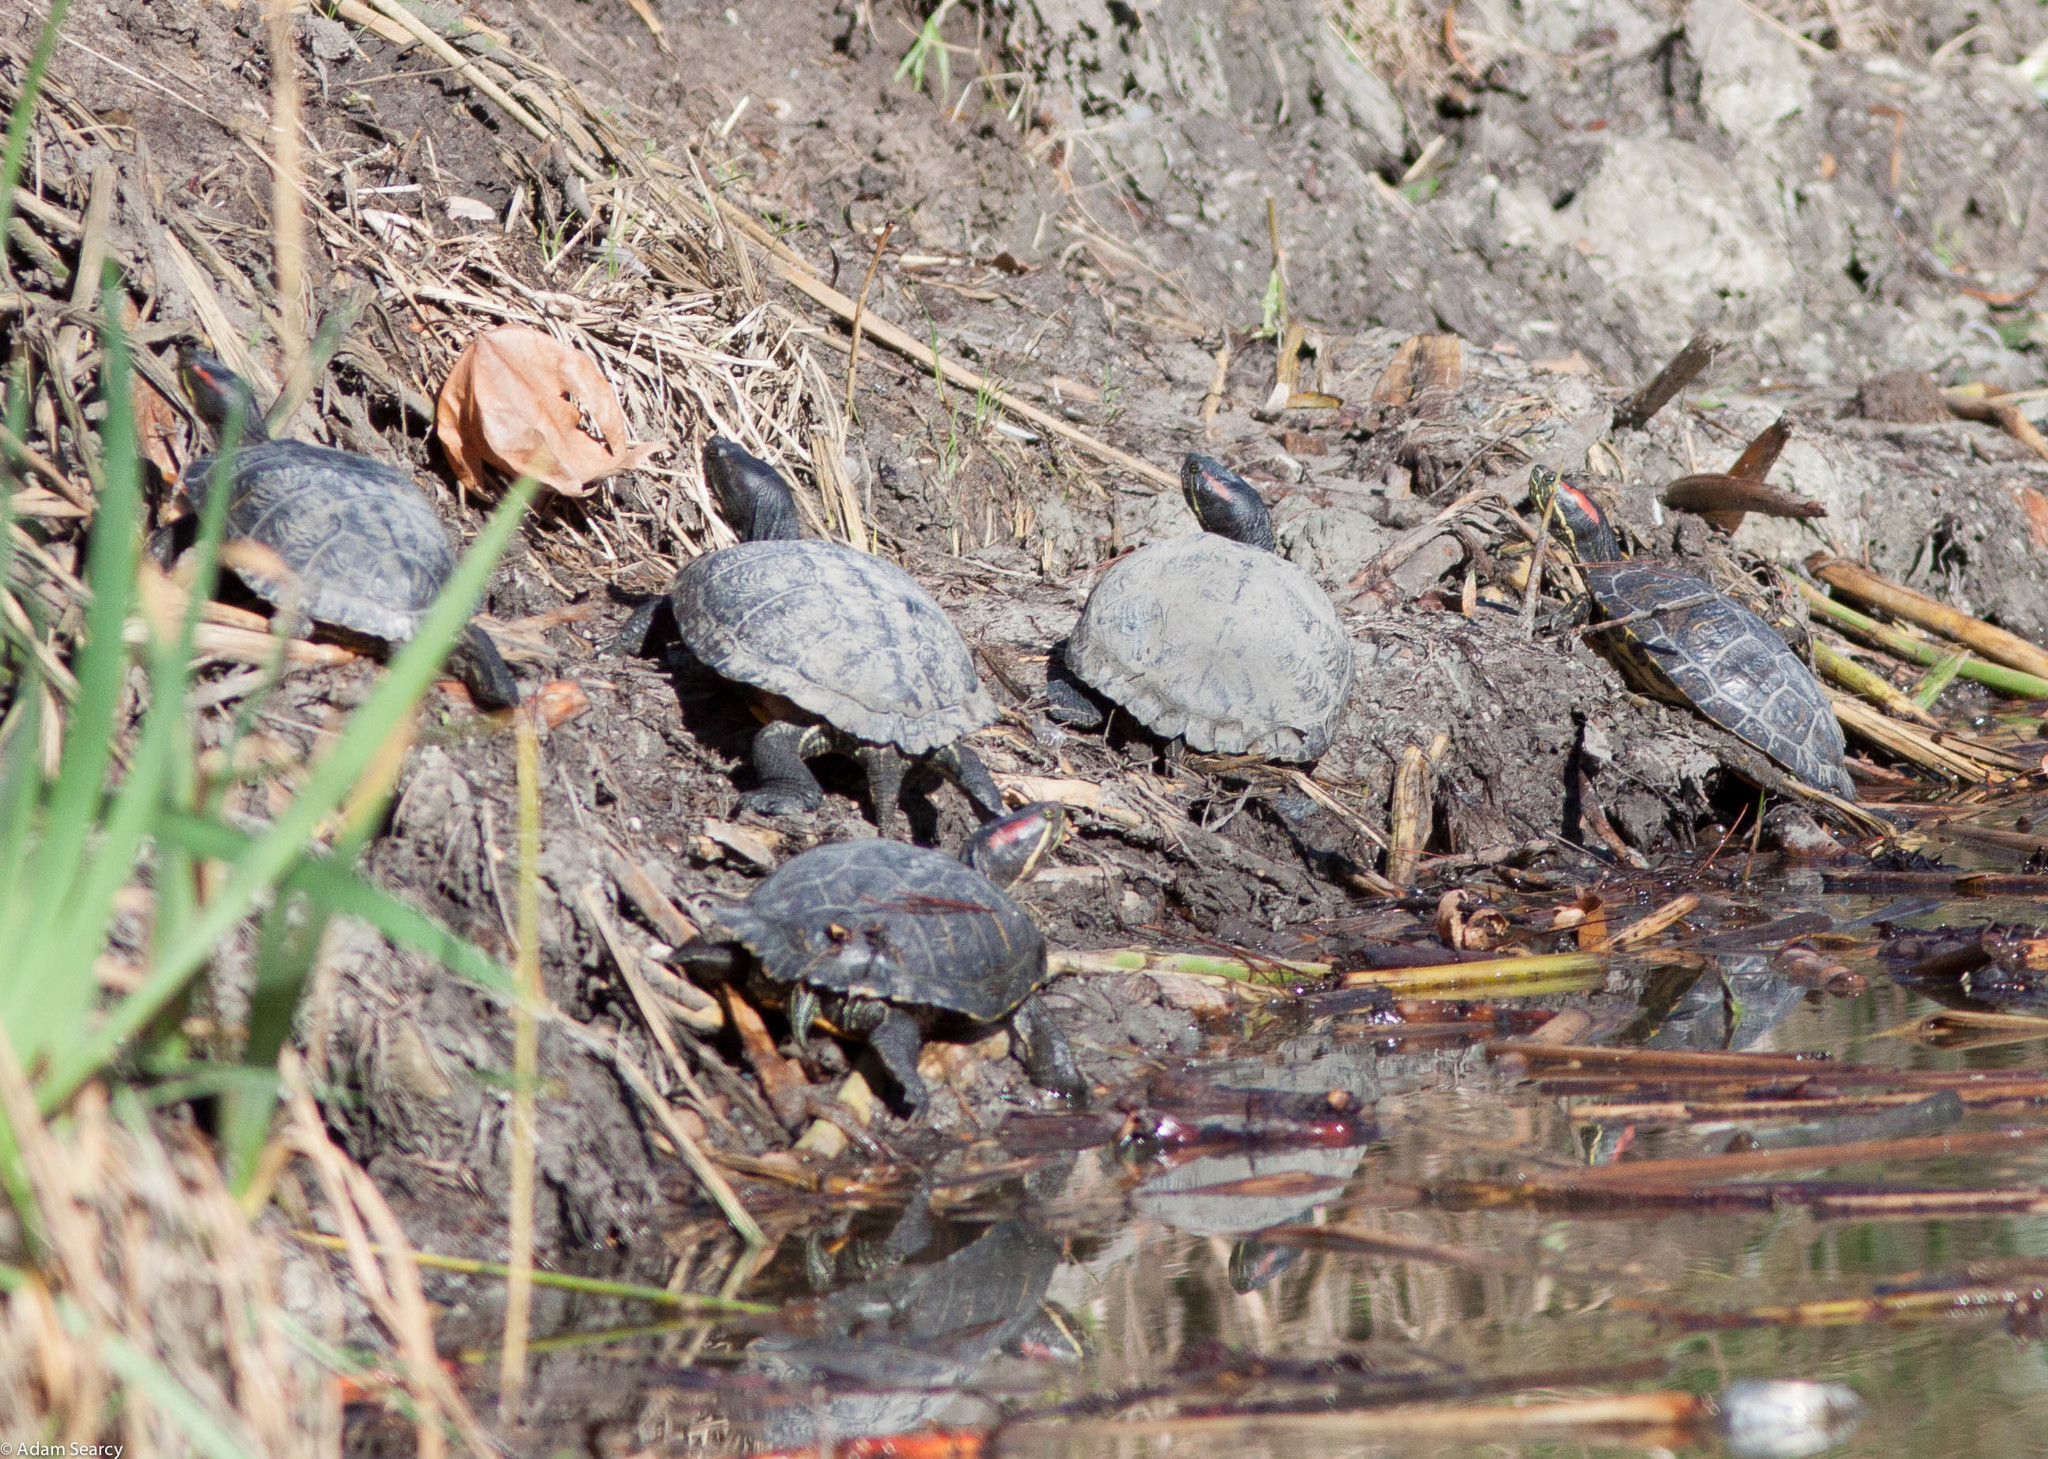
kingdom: Animalia
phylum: Chordata
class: Testudines
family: Emydidae
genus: Trachemys
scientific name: Trachemys scripta
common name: Slider
